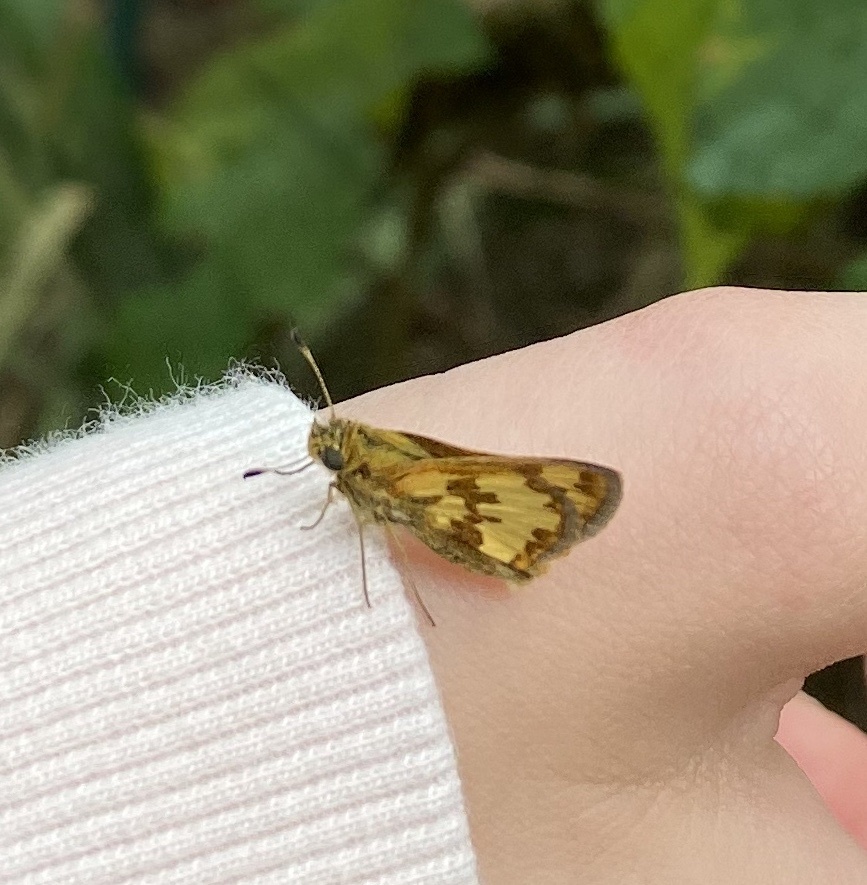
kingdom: Animalia
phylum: Arthropoda
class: Insecta
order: Lepidoptera
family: Hesperiidae
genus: Polites
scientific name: Polites coras
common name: Peck's skipper
